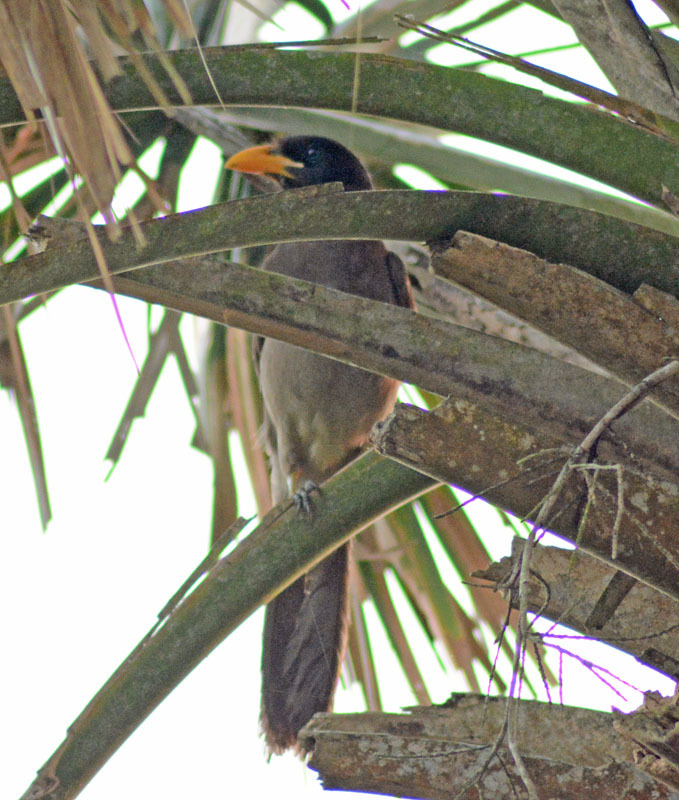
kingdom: Animalia
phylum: Chordata
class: Aves
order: Passeriformes
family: Corvidae
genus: Psilorhinus
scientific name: Psilorhinus morio
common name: Brown jay
